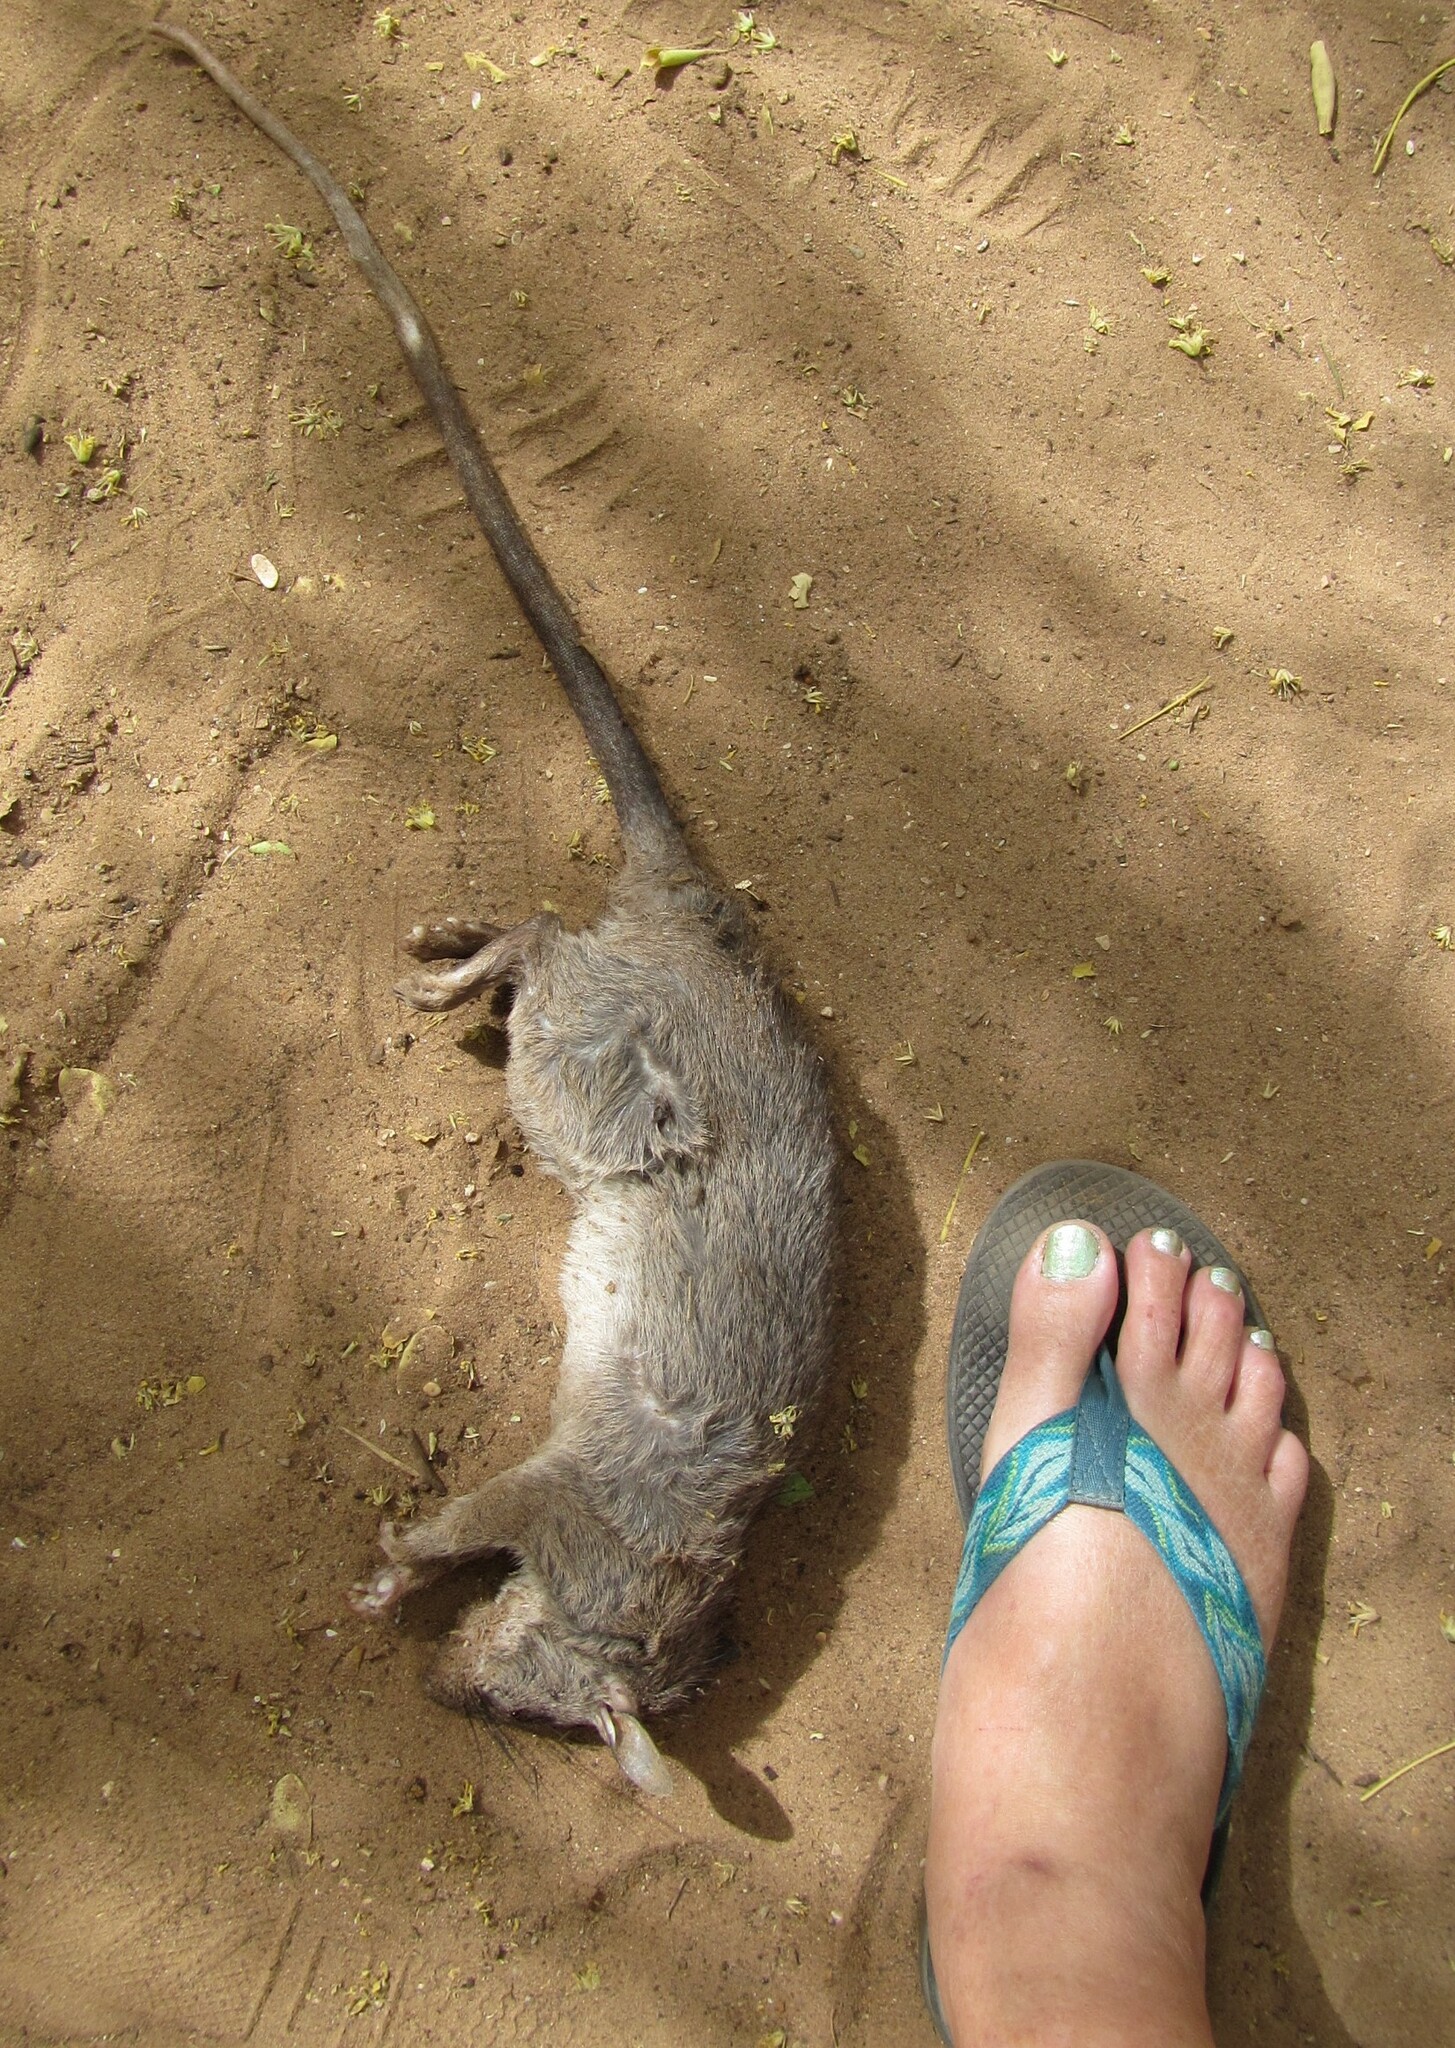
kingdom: Animalia
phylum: Chordata
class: Mammalia
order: Rodentia
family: Nesomyidae
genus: Cricetomys
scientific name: Cricetomys gambianus
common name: Northern giant pouched rat
